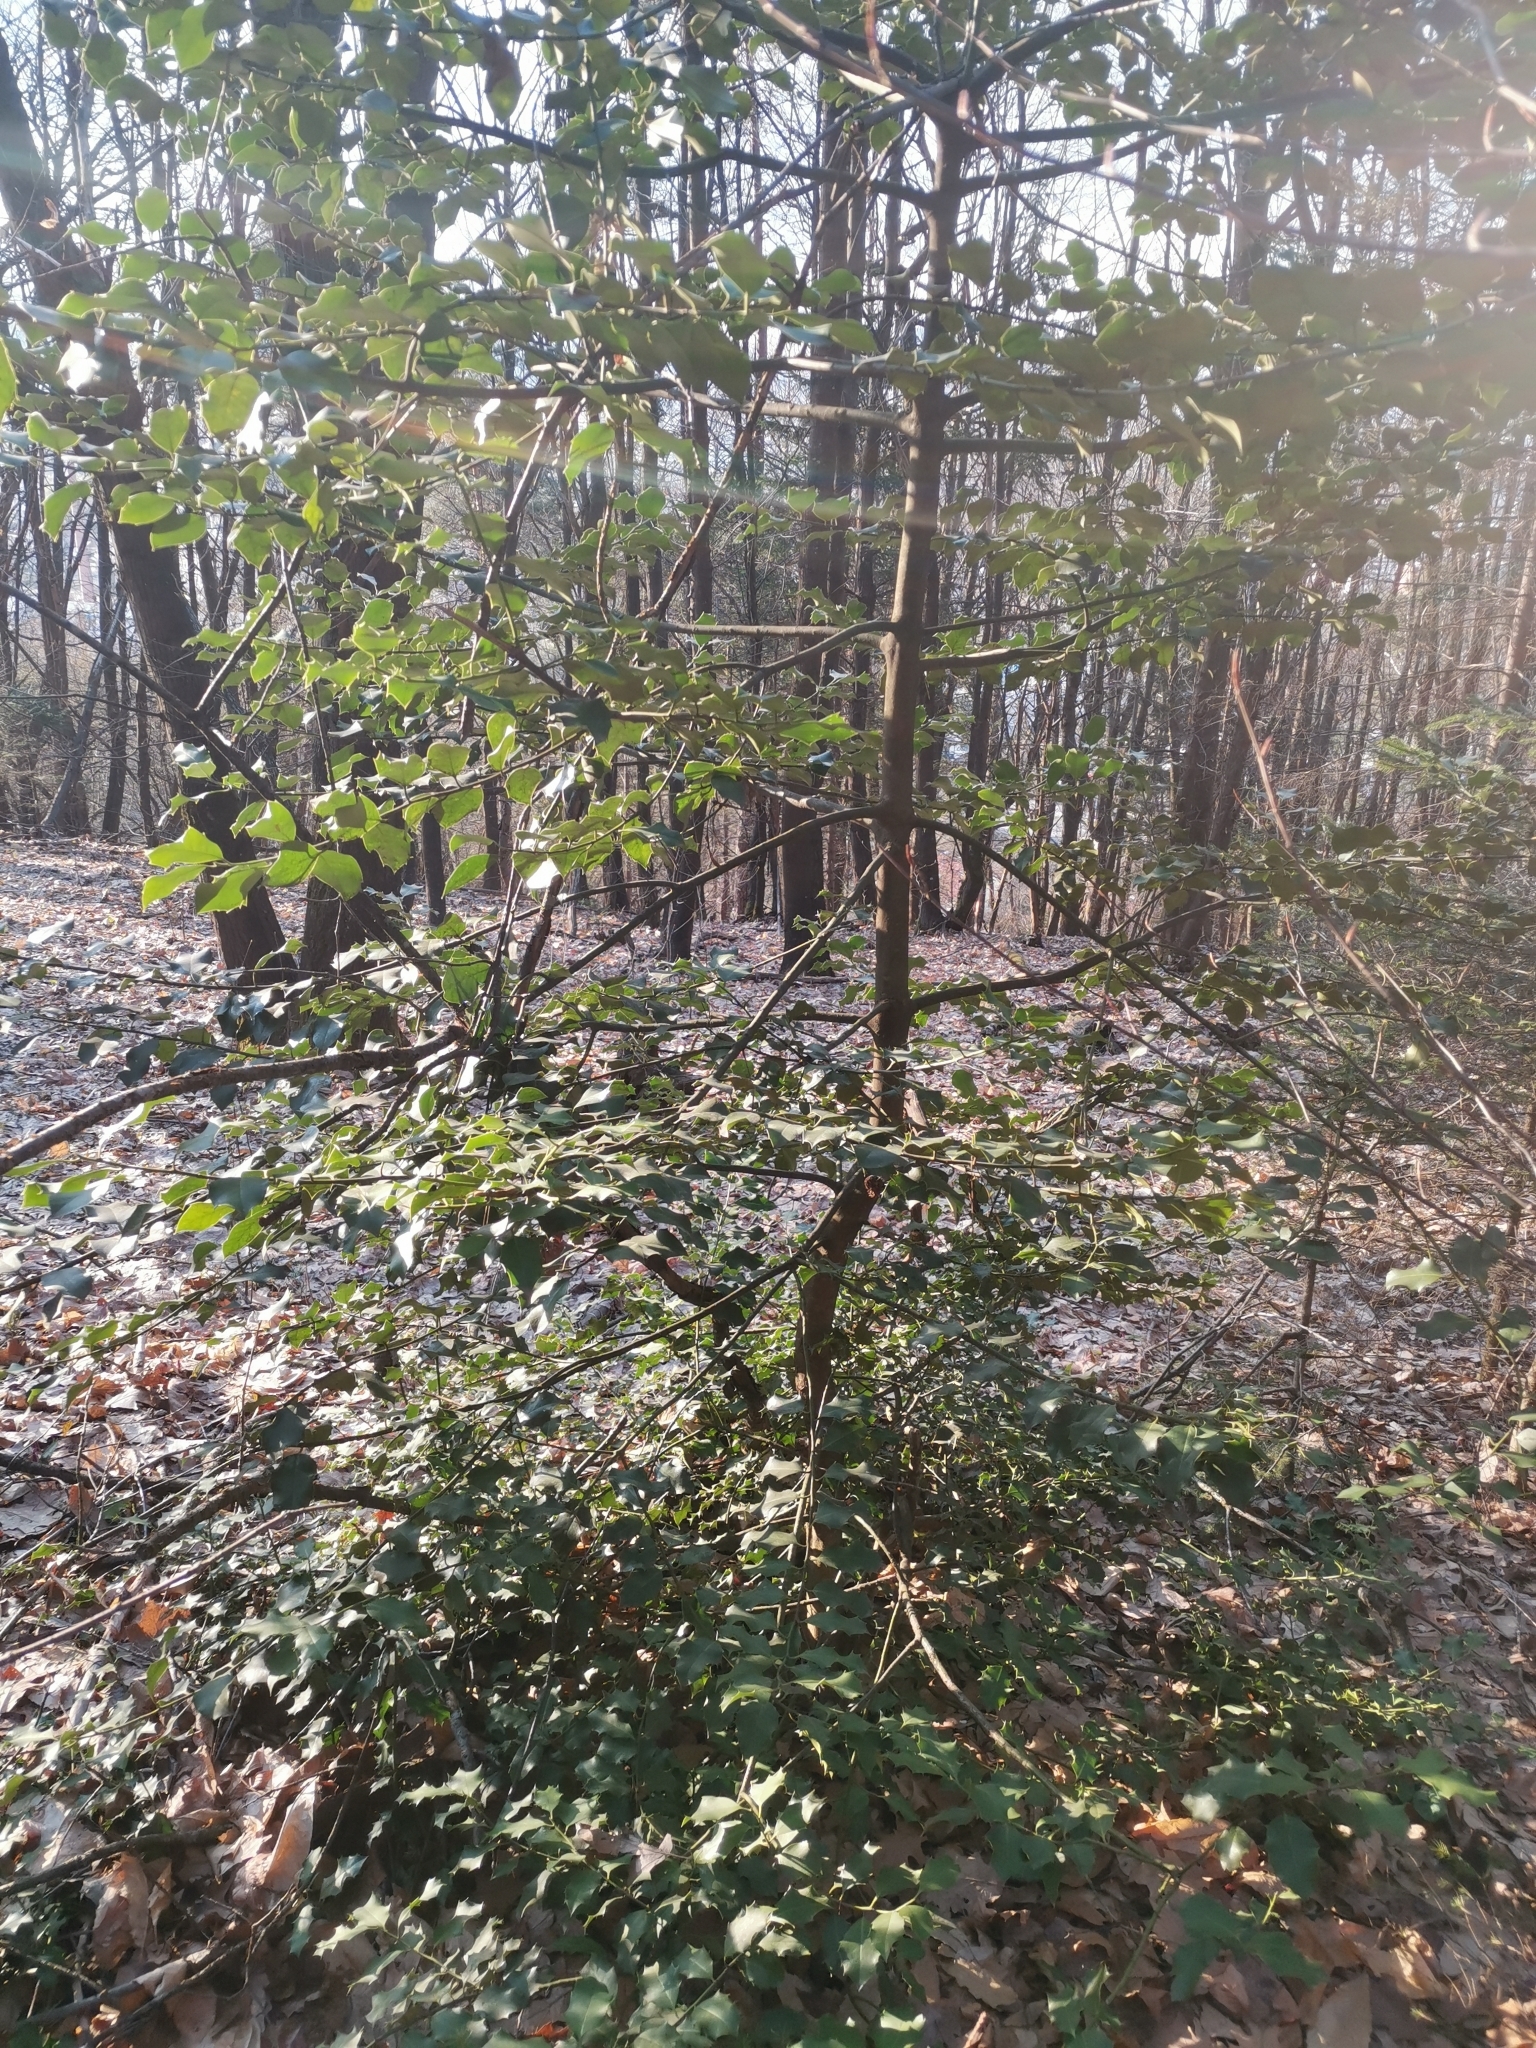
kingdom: Plantae
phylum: Tracheophyta
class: Magnoliopsida
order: Aquifoliales
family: Aquifoliaceae
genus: Ilex
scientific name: Ilex aquifolium
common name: English holly
